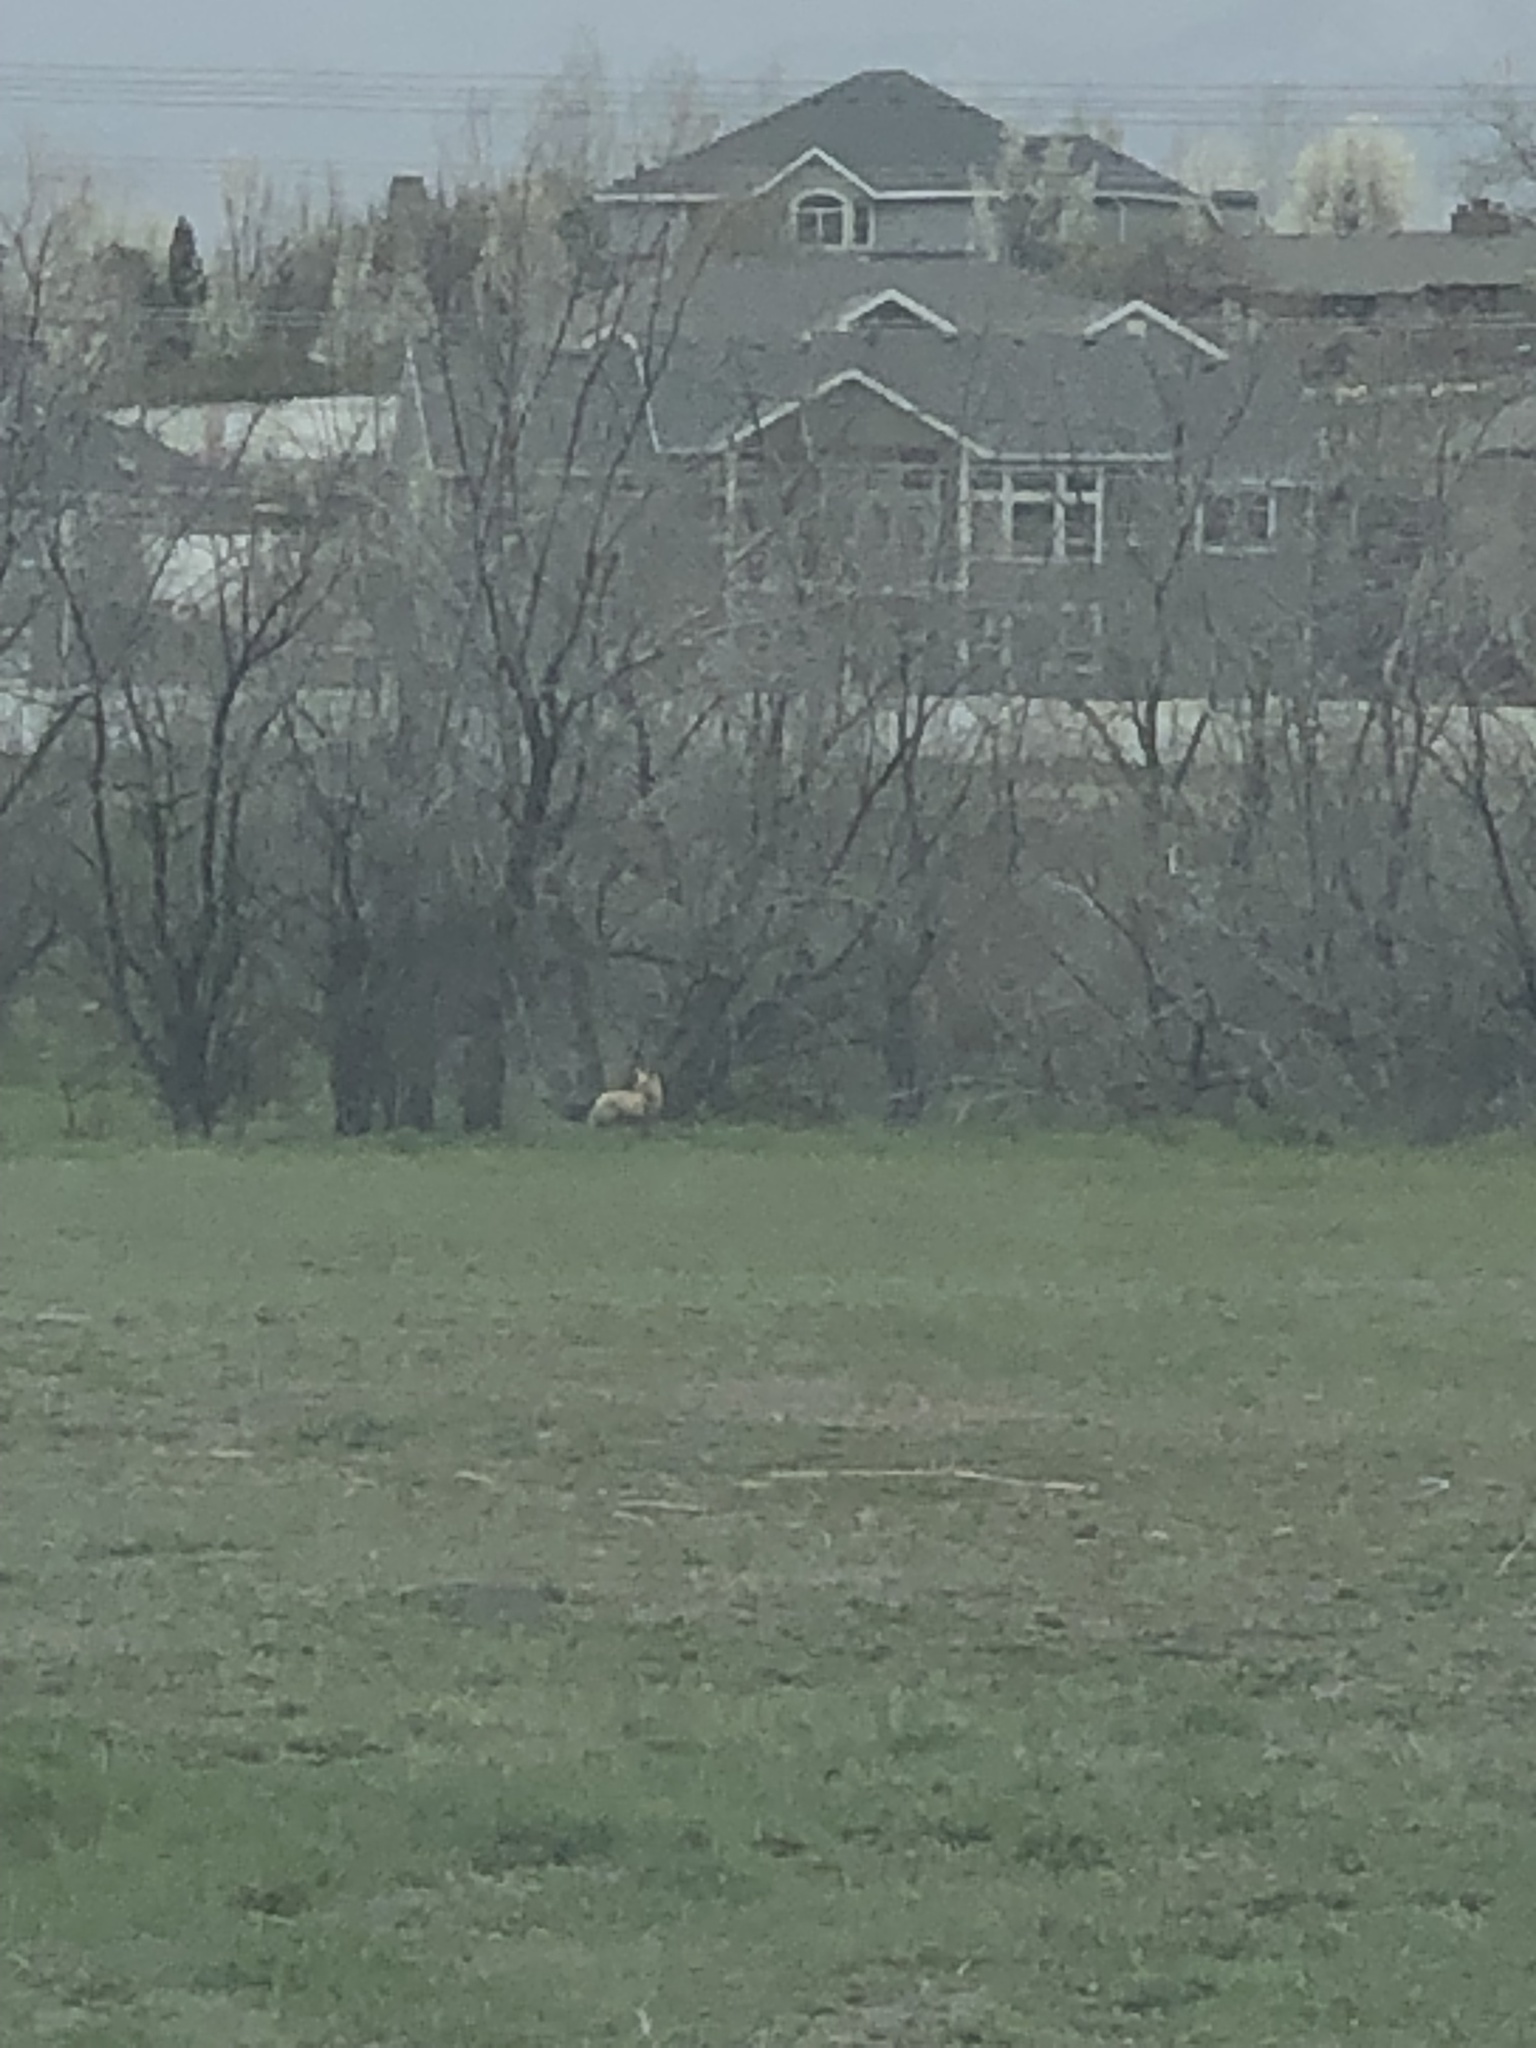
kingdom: Animalia
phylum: Chordata
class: Mammalia
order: Carnivora
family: Canidae
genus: Vulpes
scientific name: Vulpes vulpes
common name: Red fox
